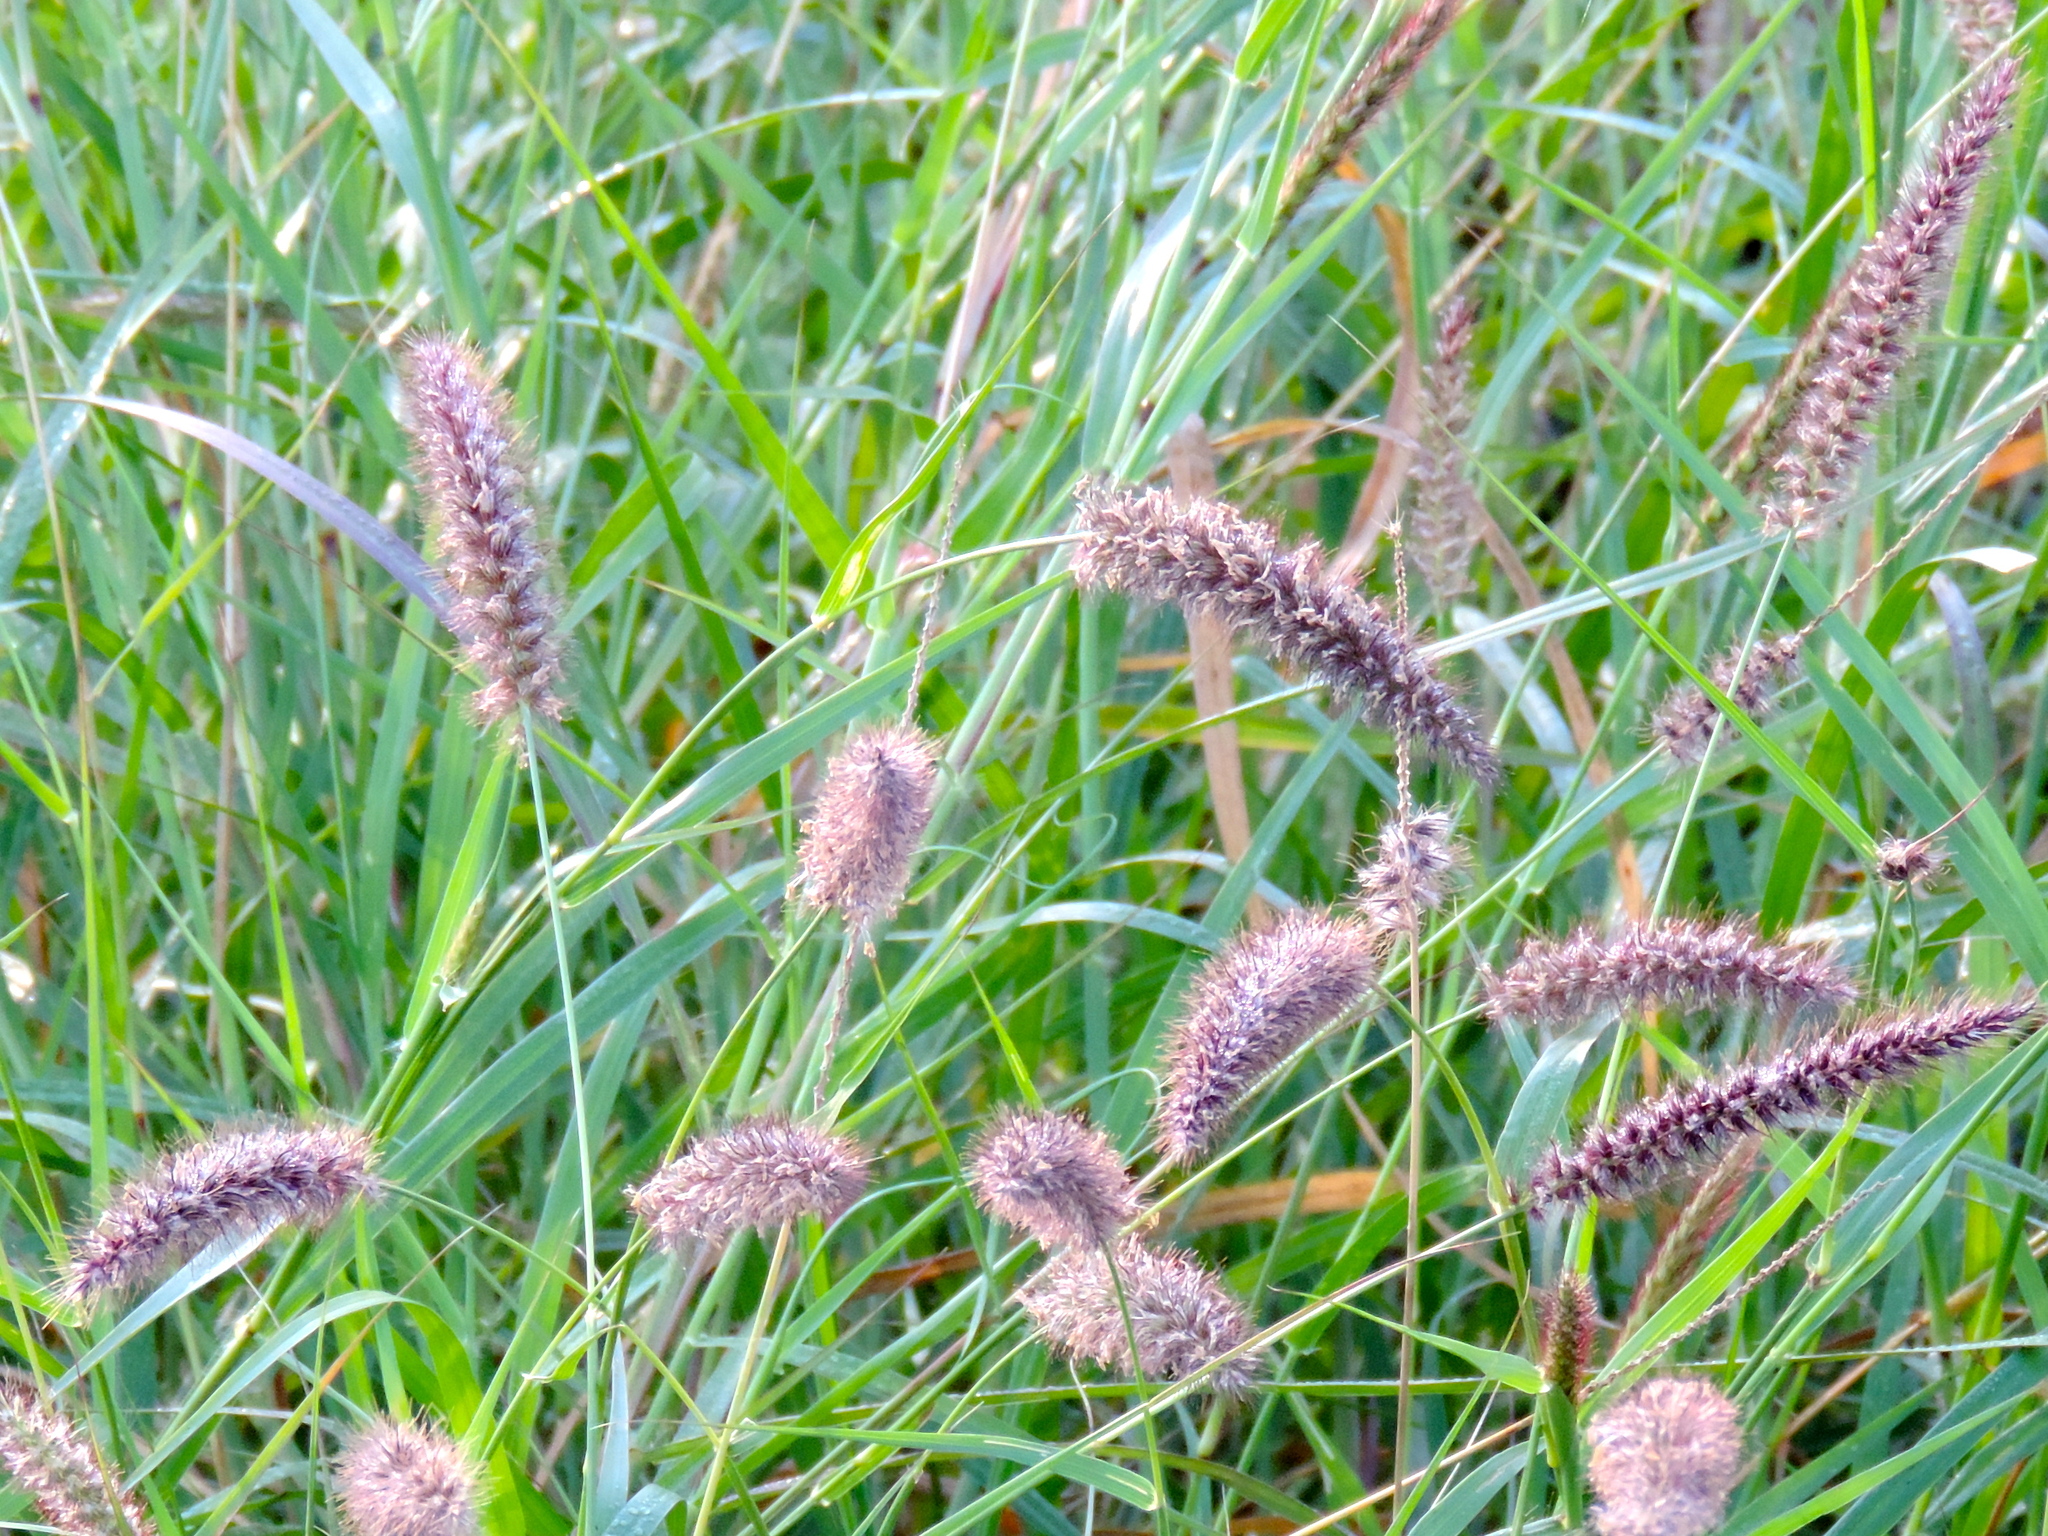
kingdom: Plantae
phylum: Tracheophyta
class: Liliopsida
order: Poales
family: Poaceae
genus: Cenchrus
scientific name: Cenchrus ciliaris
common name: Buffelgrass
